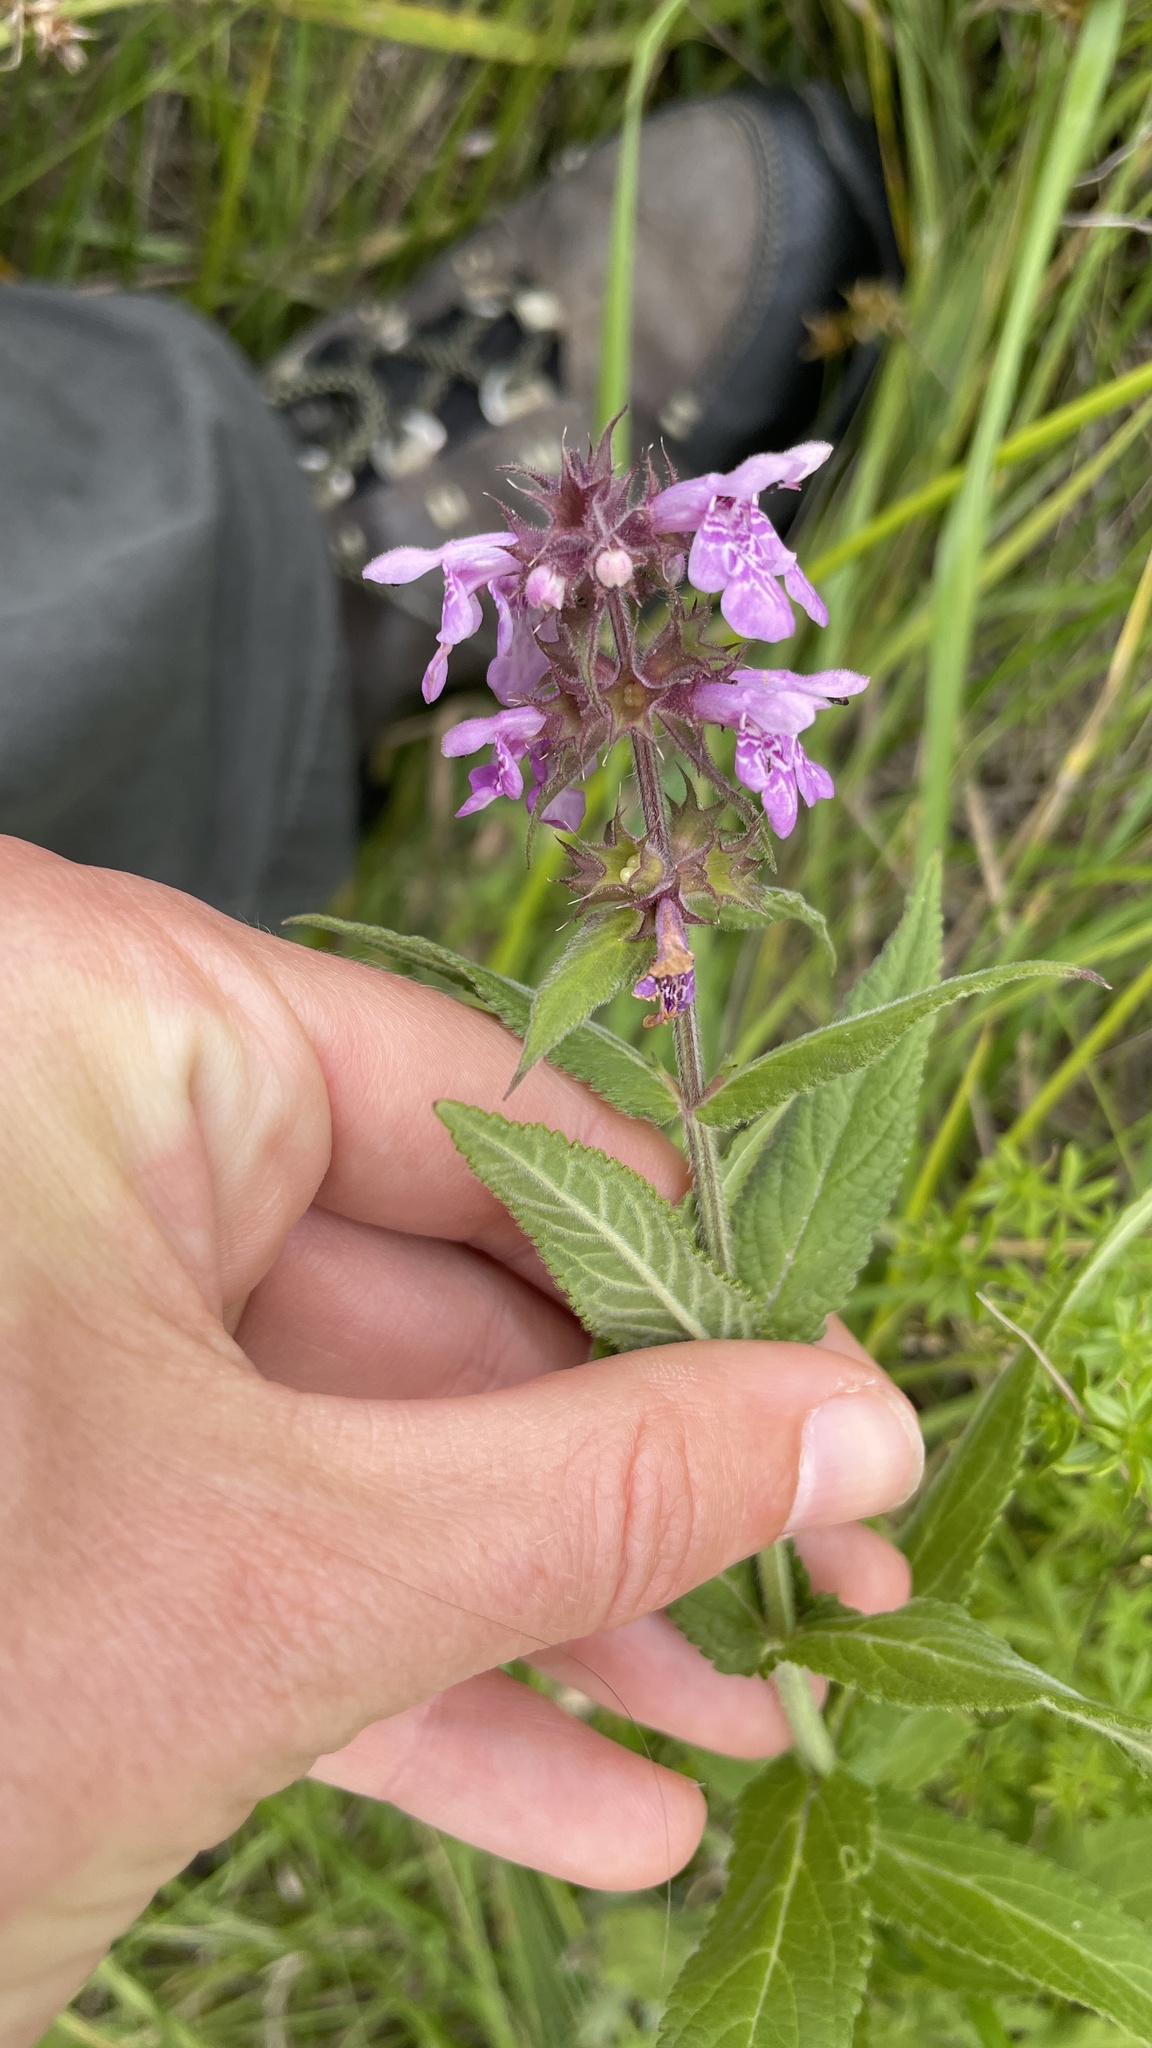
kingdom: Plantae
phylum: Tracheophyta
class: Magnoliopsida
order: Lamiales
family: Lamiaceae
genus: Stachys
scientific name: Stachys palustris
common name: Marsh woundwort
